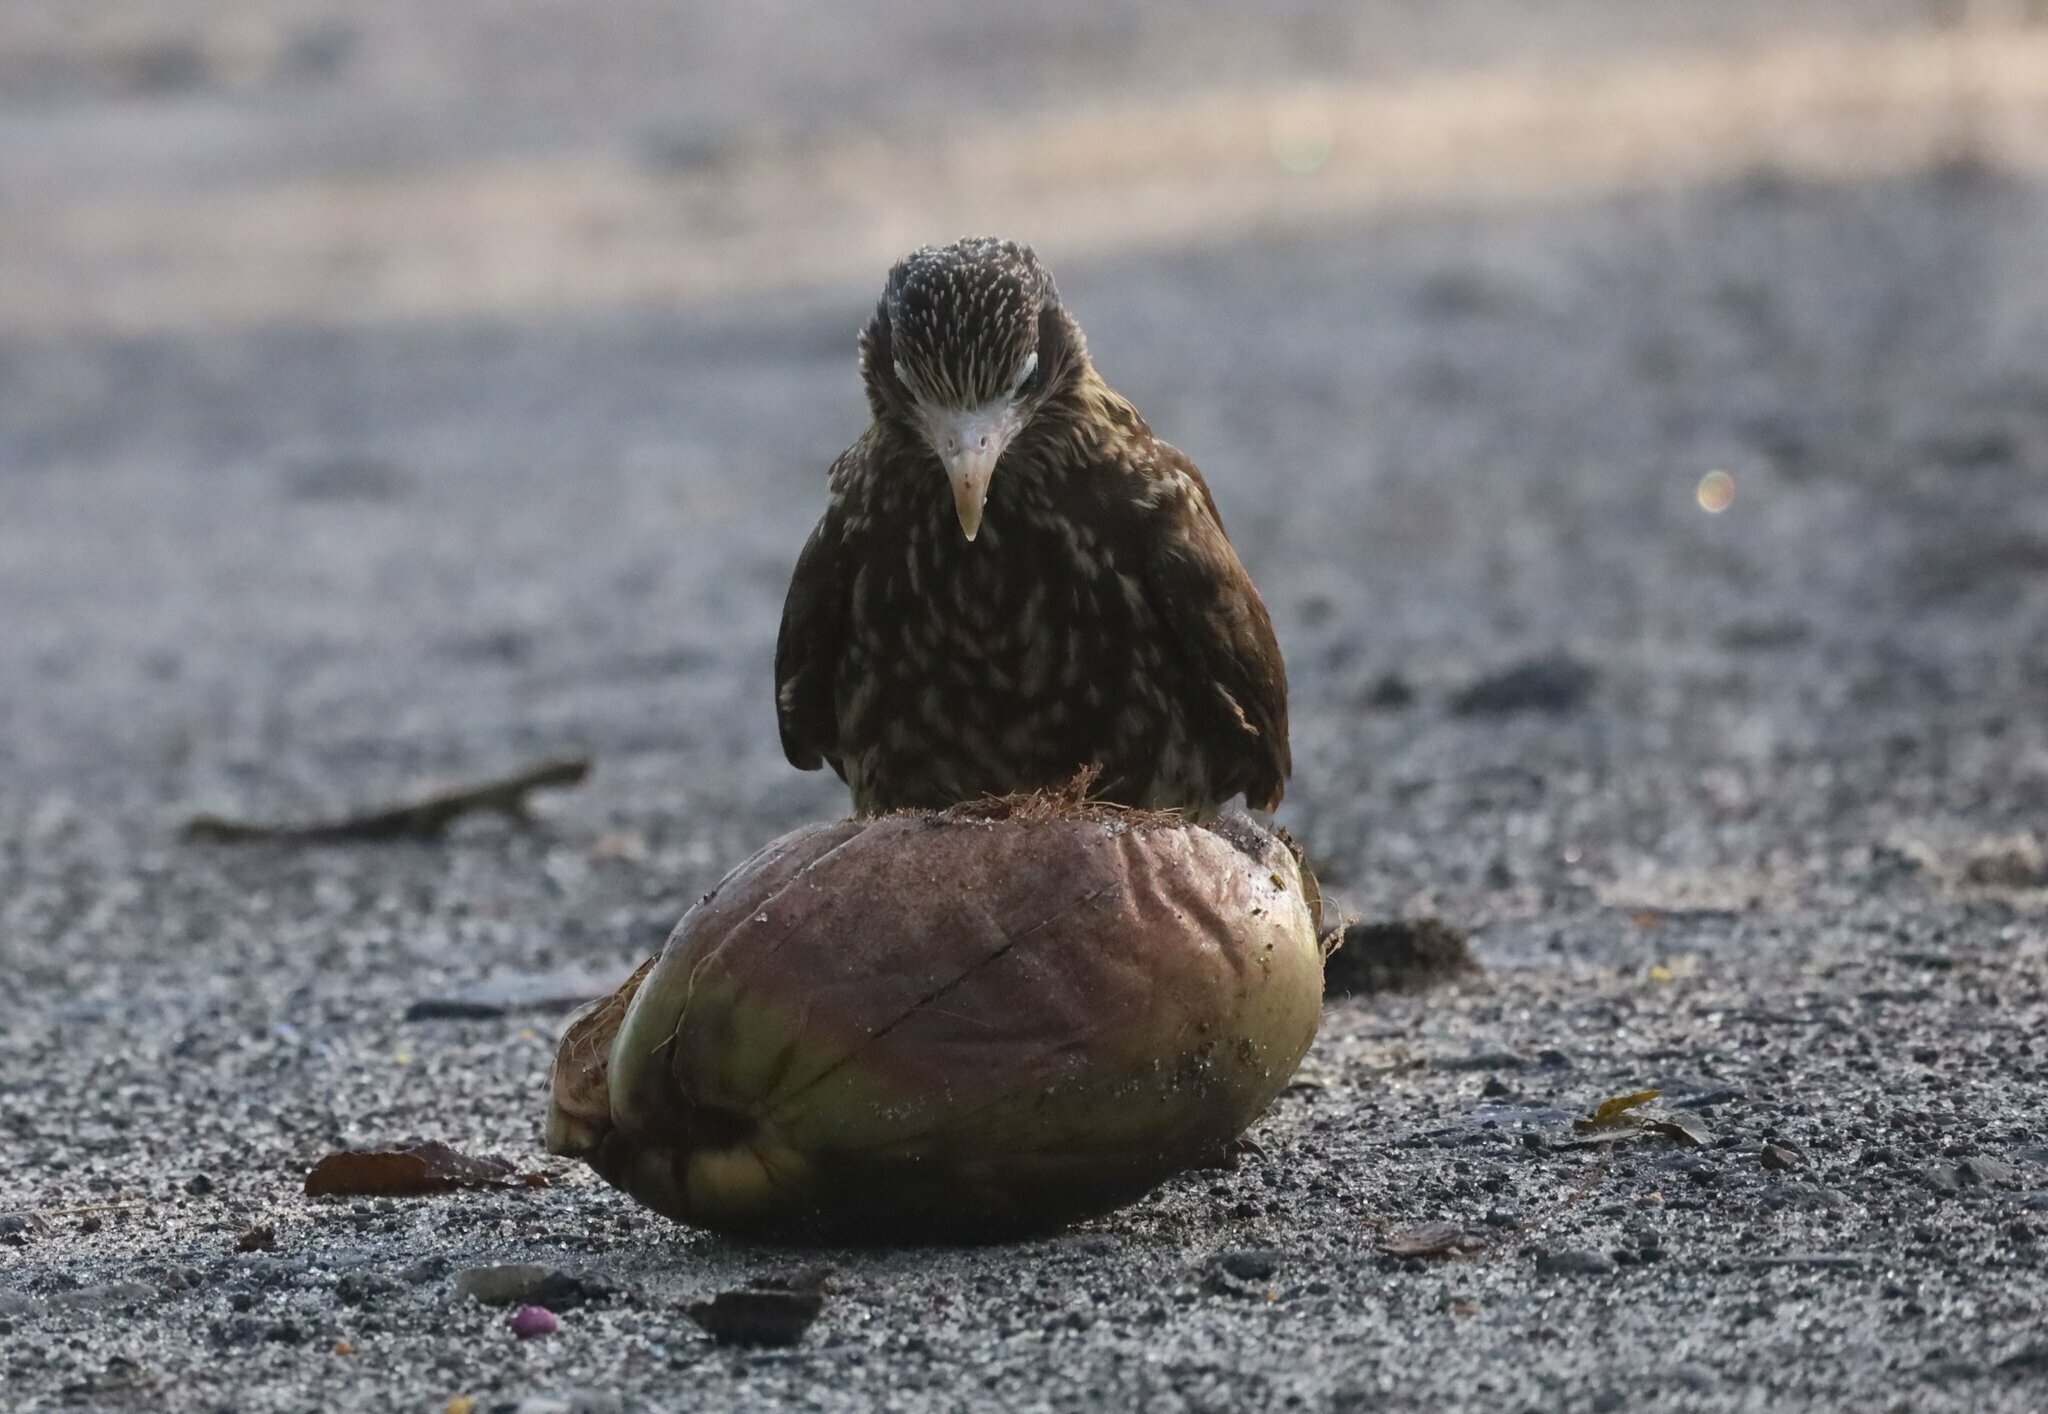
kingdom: Animalia
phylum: Chordata
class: Aves
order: Falconiformes
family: Falconidae
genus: Daptrius
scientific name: Daptrius
